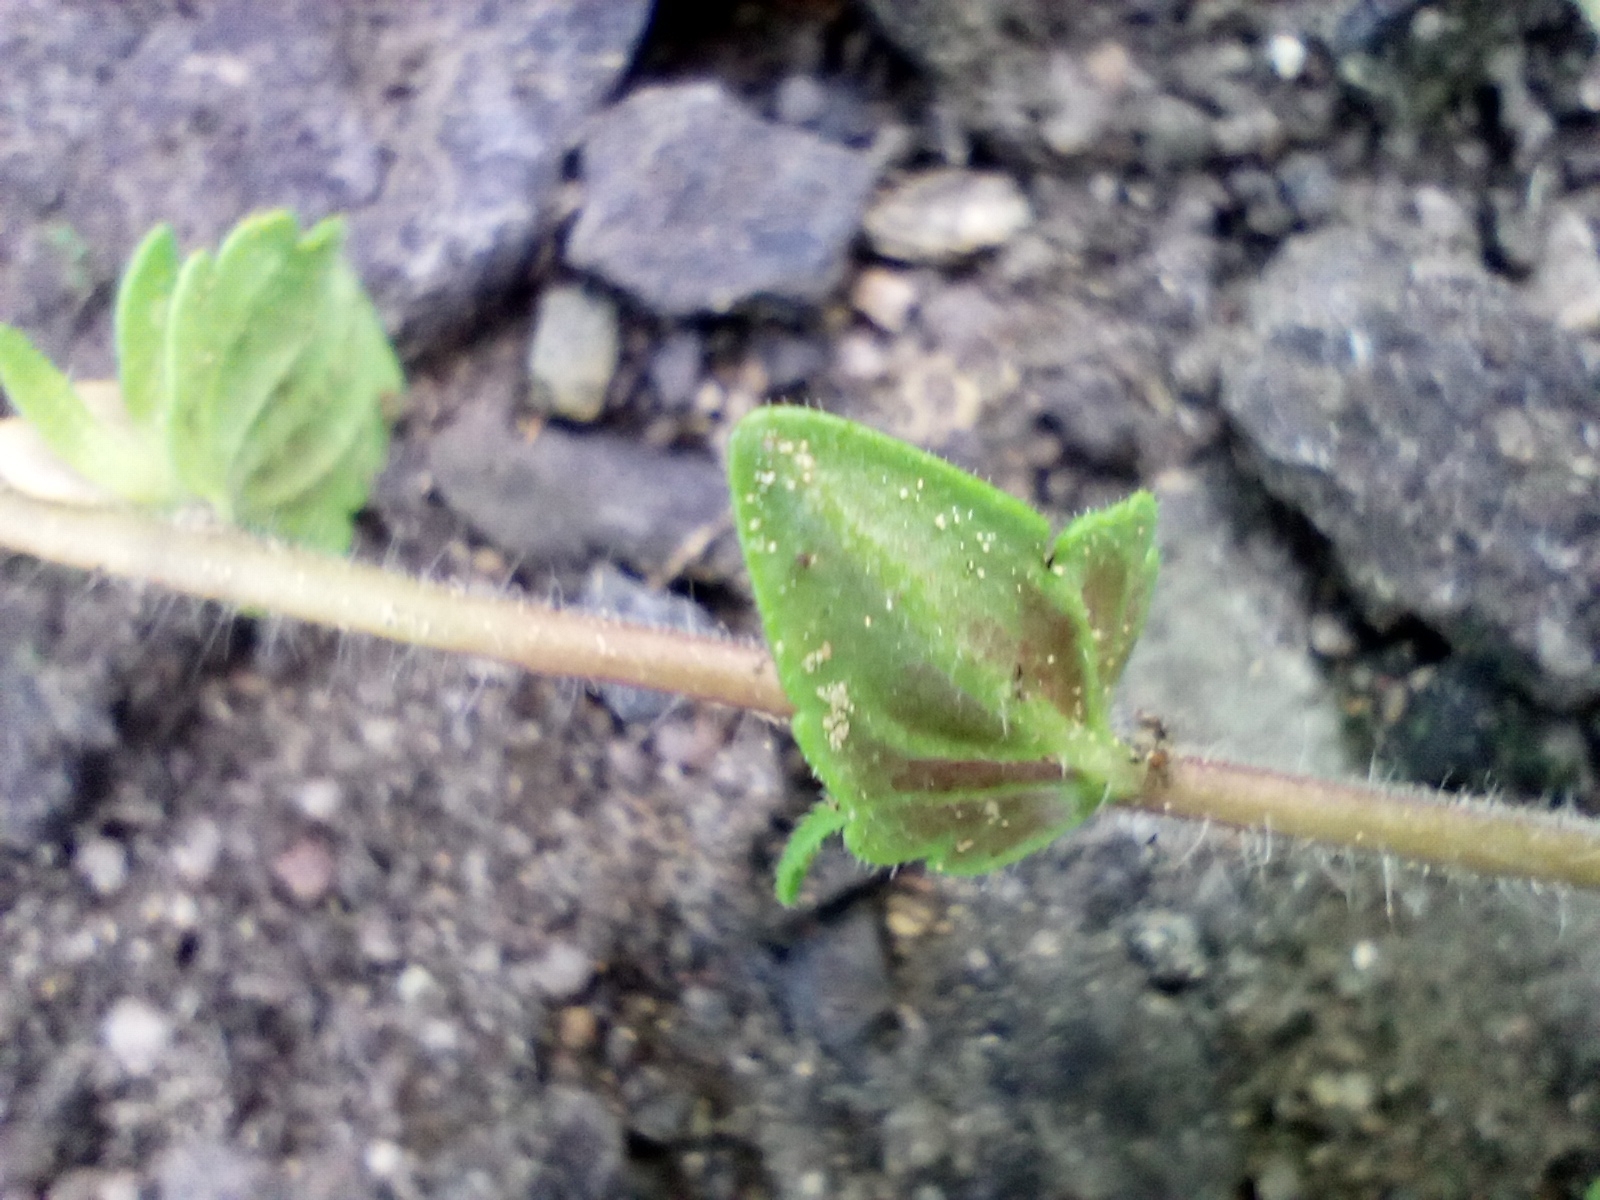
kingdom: Plantae
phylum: Tracheophyta
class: Magnoliopsida
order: Lamiales
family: Plantaginaceae
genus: Veronica
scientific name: Veronica arvensis
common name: Corn speedwell
